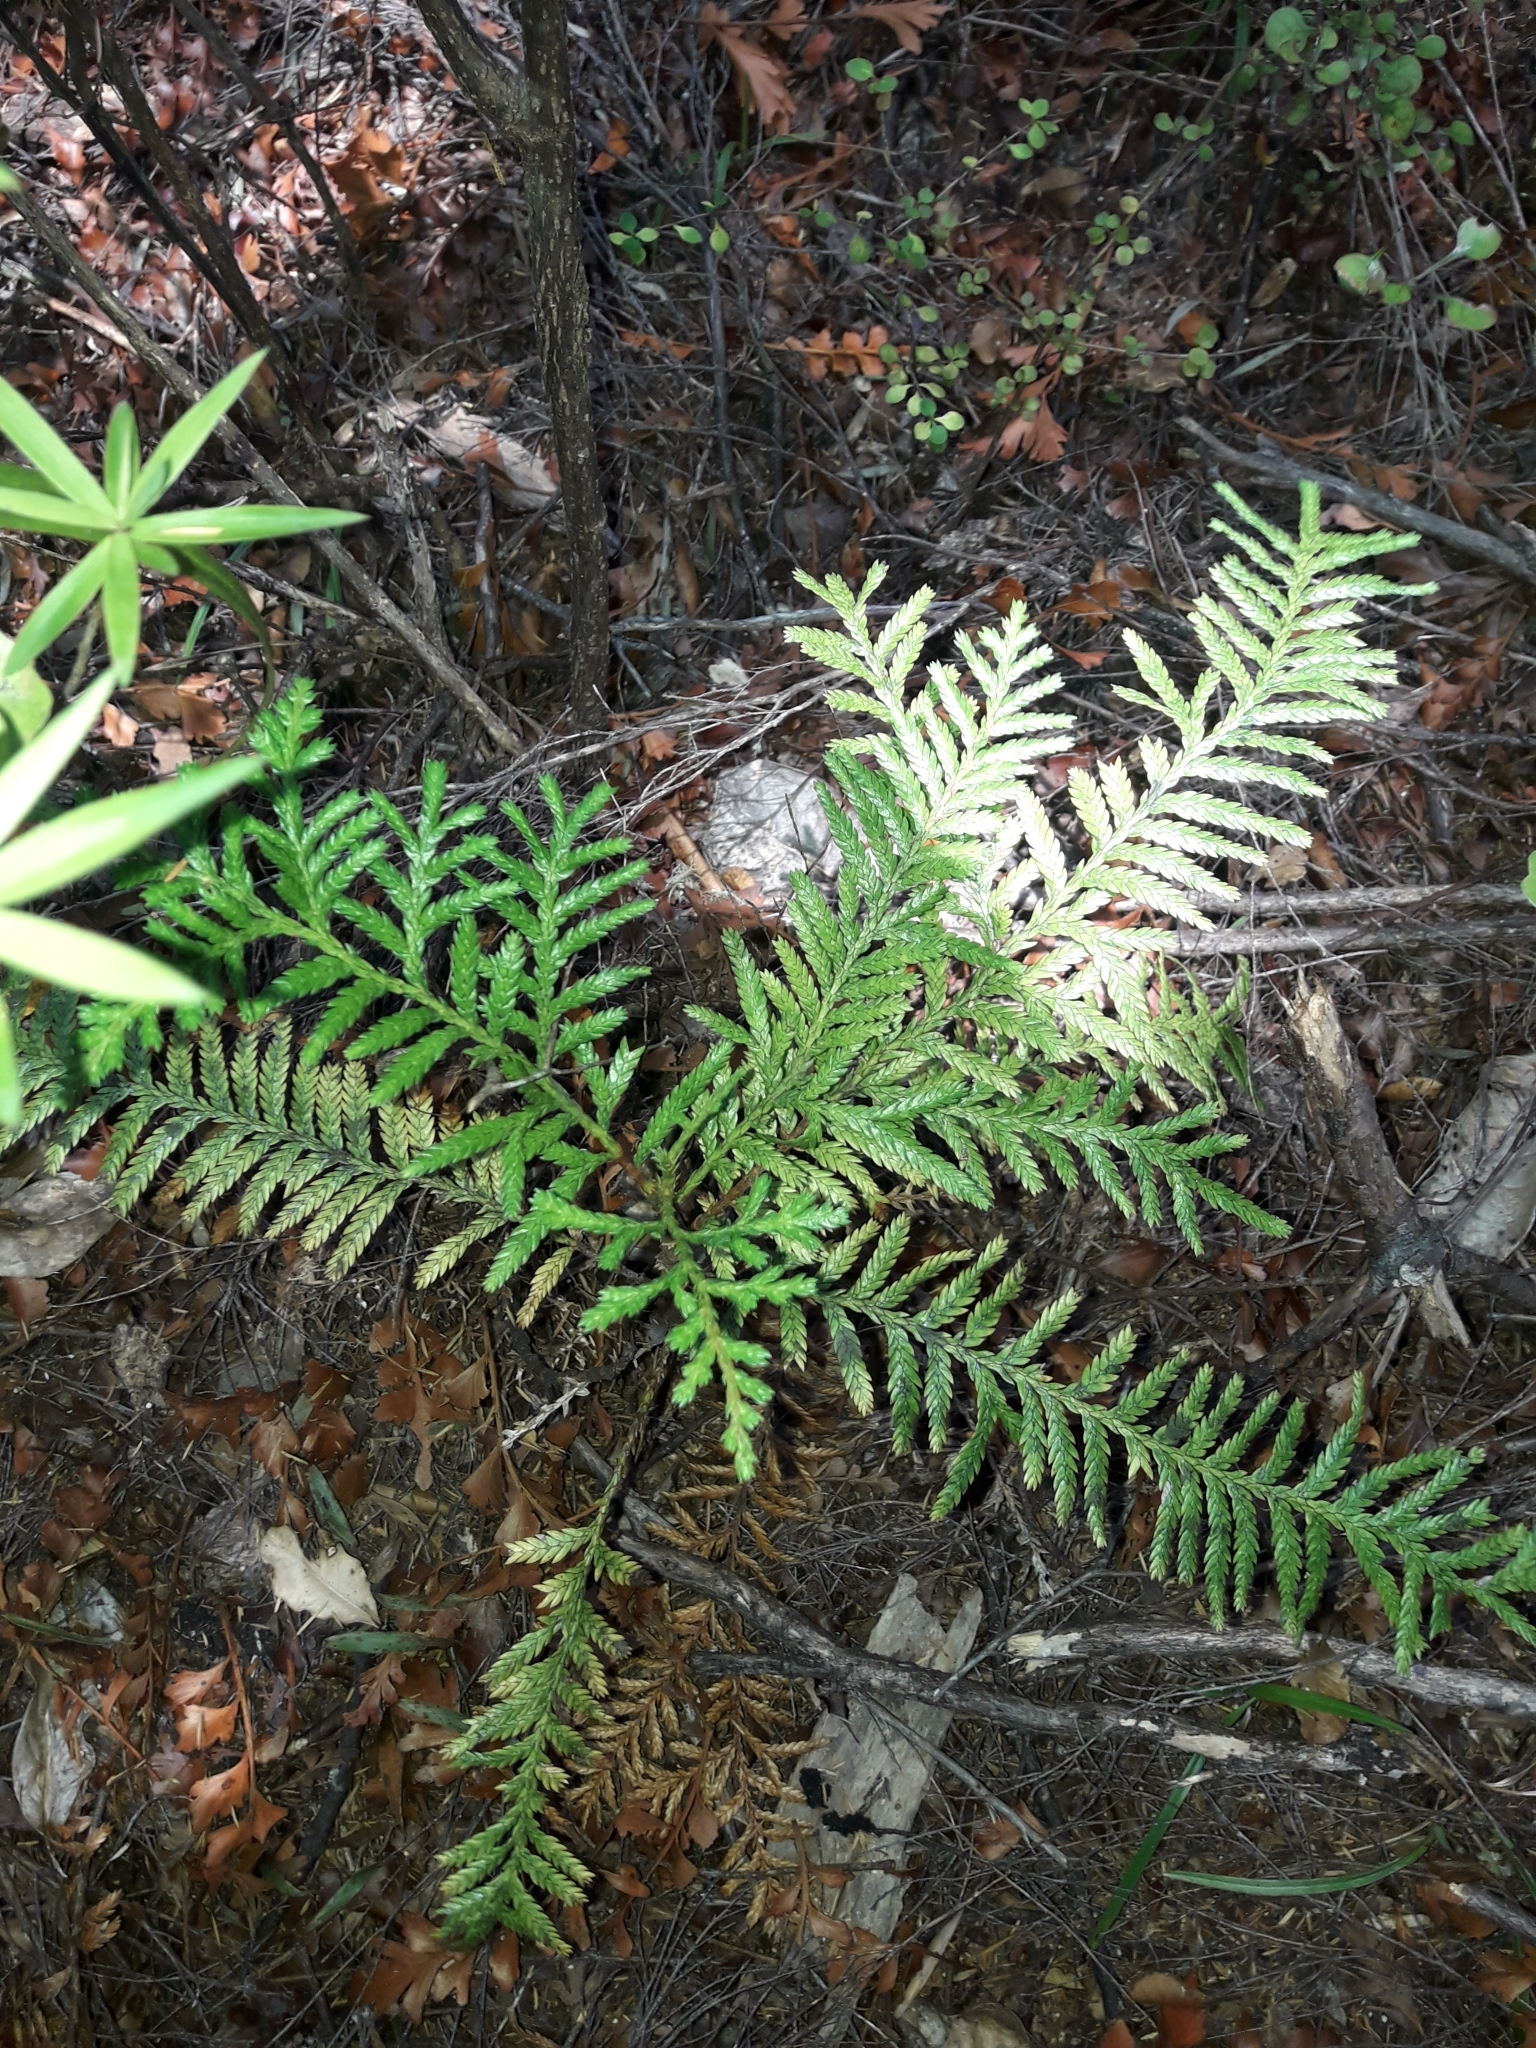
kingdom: Plantae
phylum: Tracheophyta
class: Pinopsida
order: Pinales
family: Cupressaceae
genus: Libocedrus
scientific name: Libocedrus plumosa
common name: New zealand cedar
